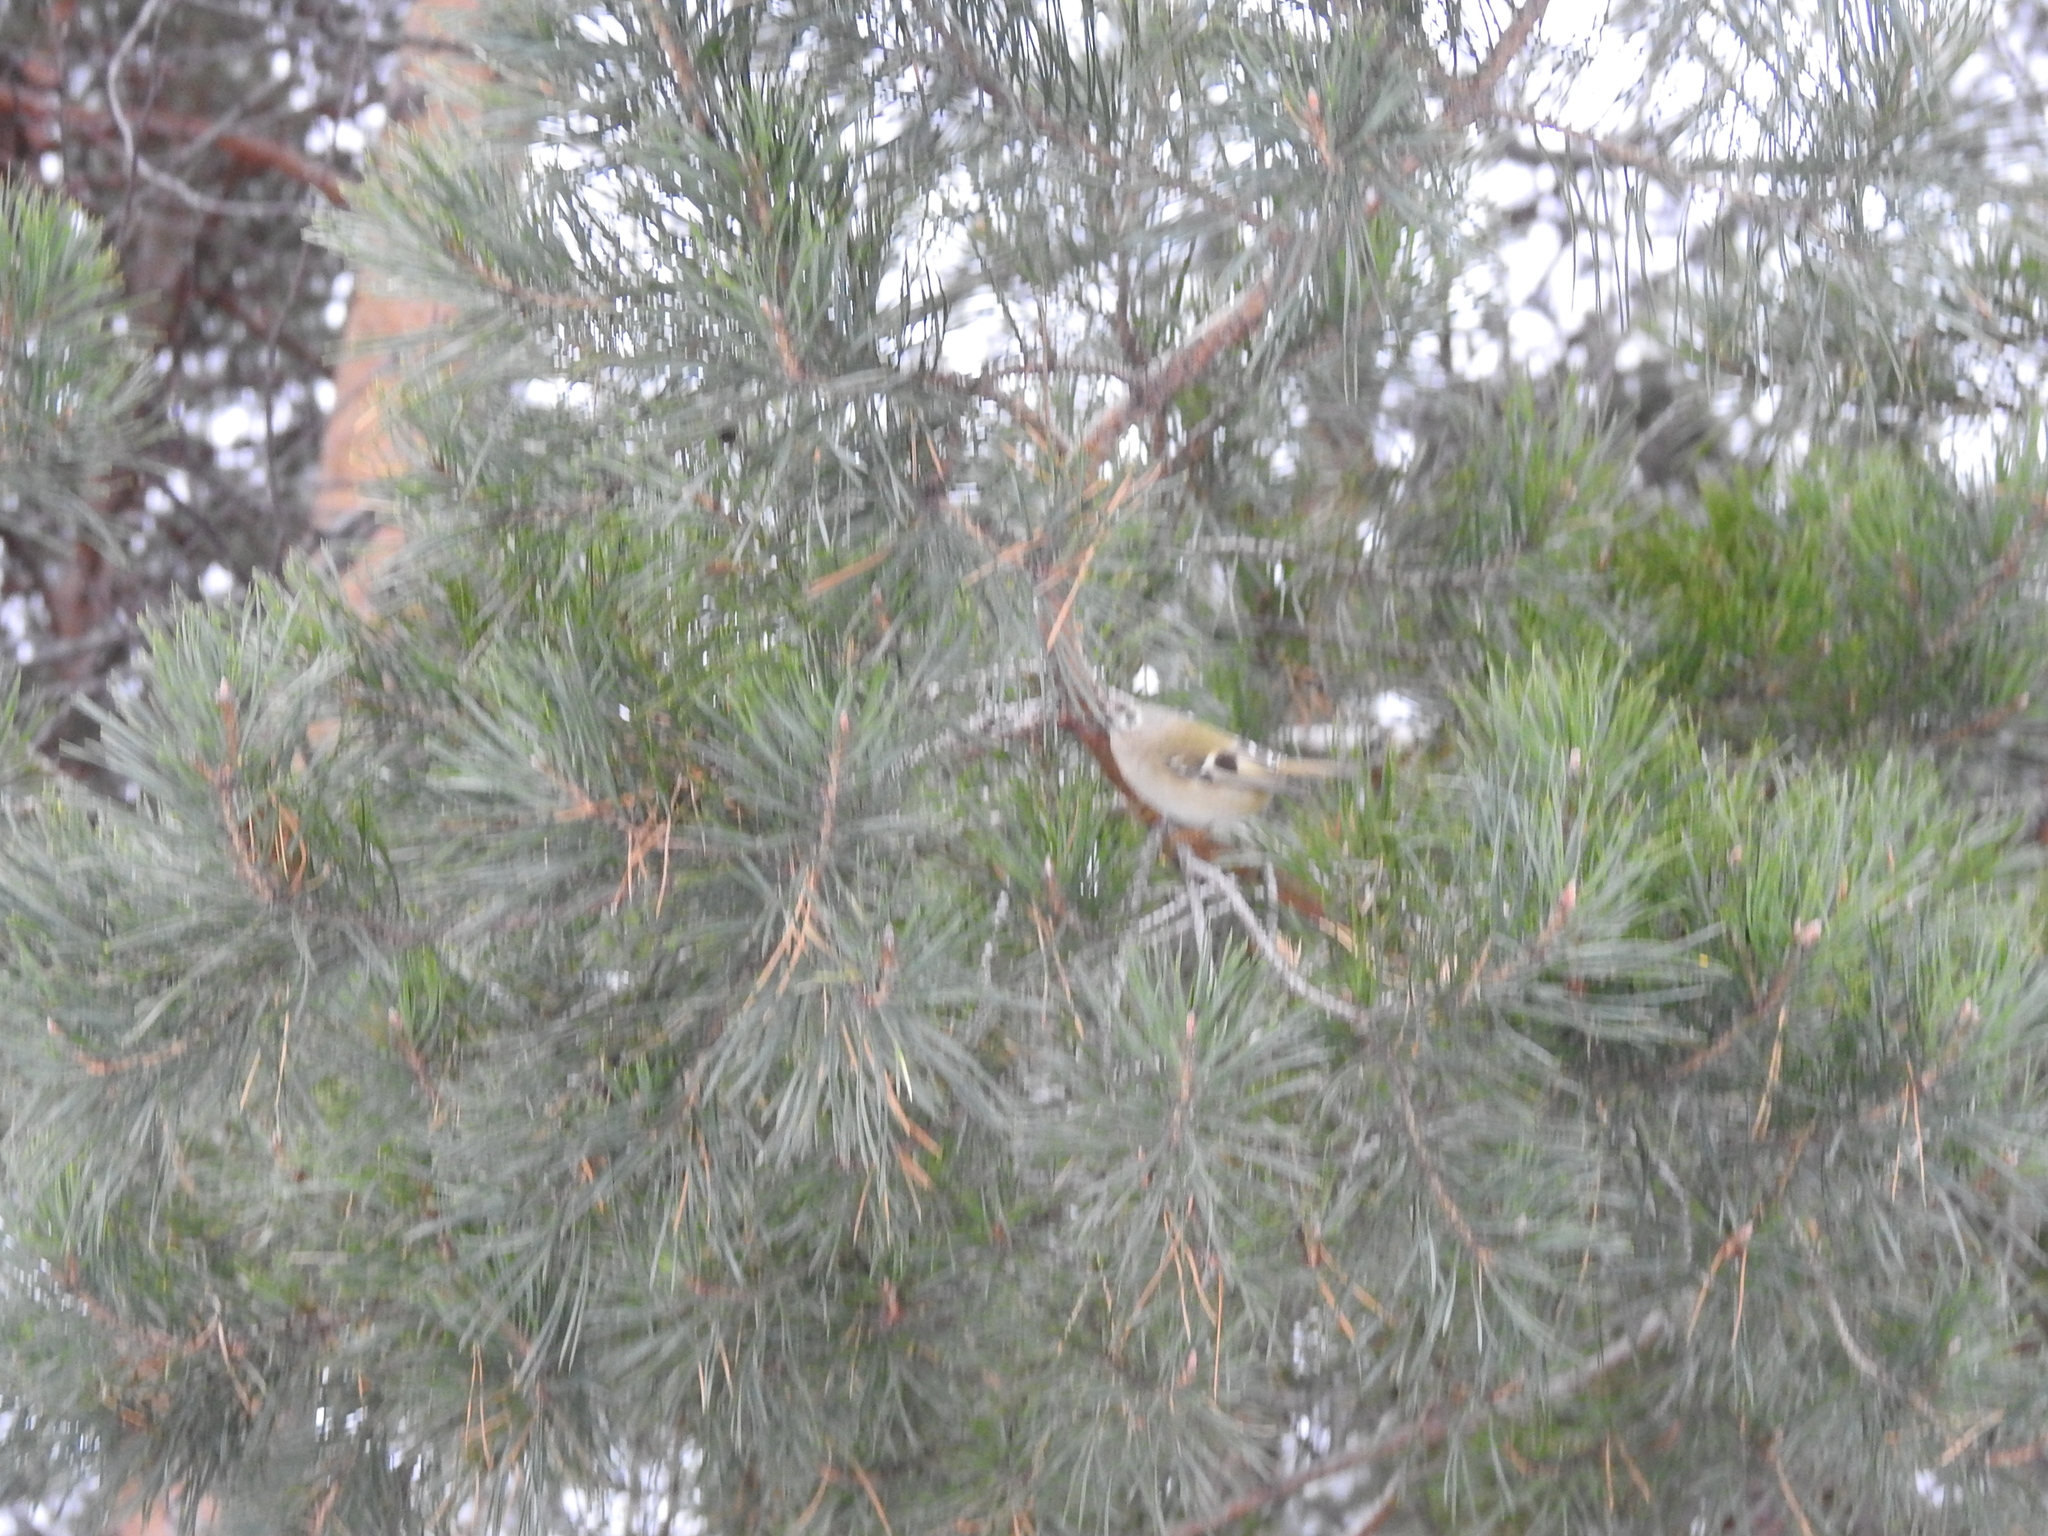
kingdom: Animalia
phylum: Chordata
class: Aves
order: Passeriformes
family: Regulidae
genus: Regulus
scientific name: Regulus regulus
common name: Goldcrest
